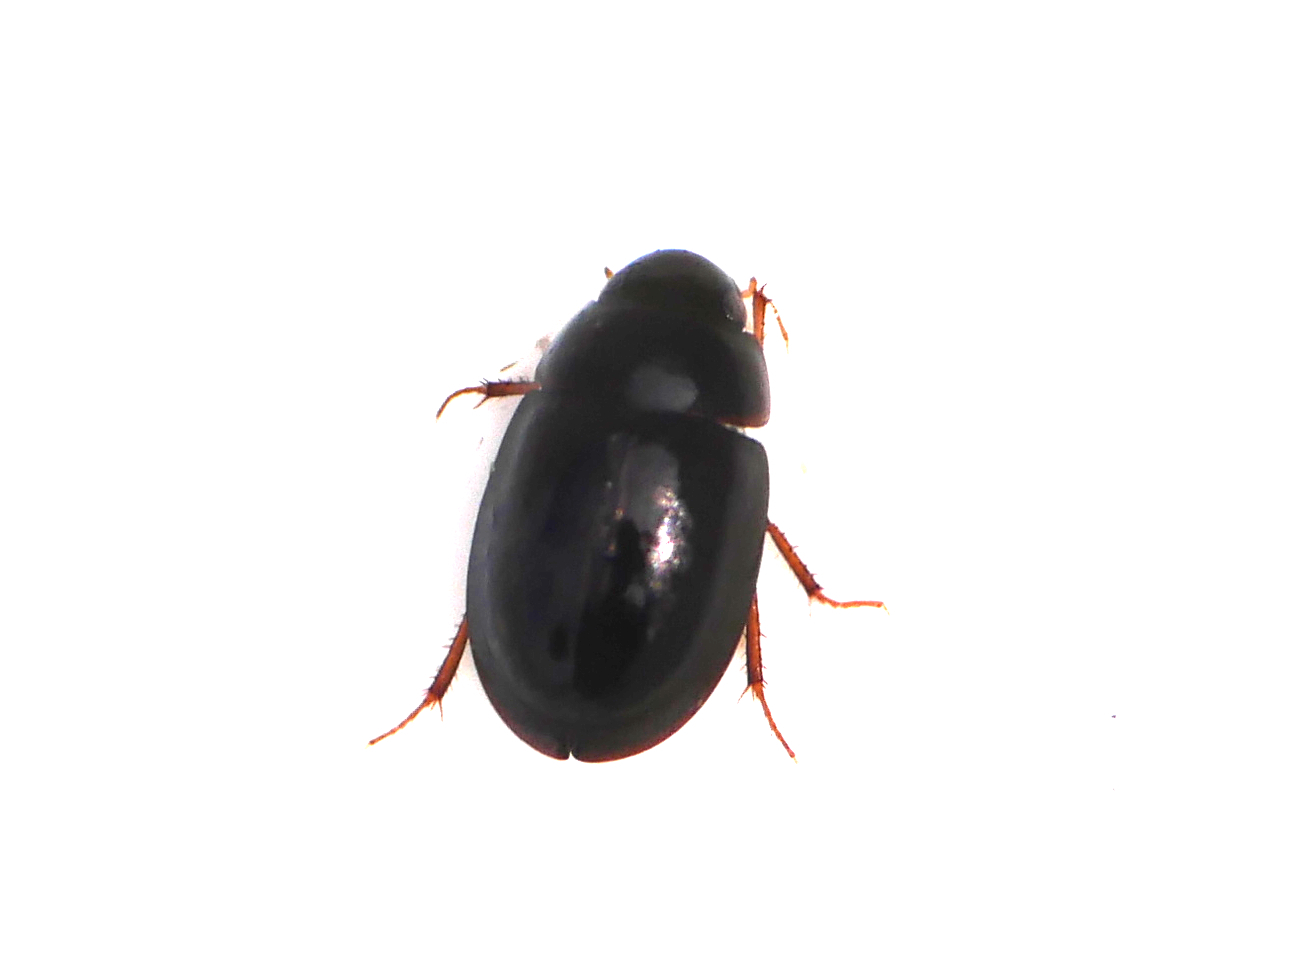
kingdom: Animalia
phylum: Arthropoda
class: Insecta
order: Coleoptera
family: Hydrophilidae
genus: Paracymus
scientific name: Paracymus aeneus
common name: Bembridge beetle
